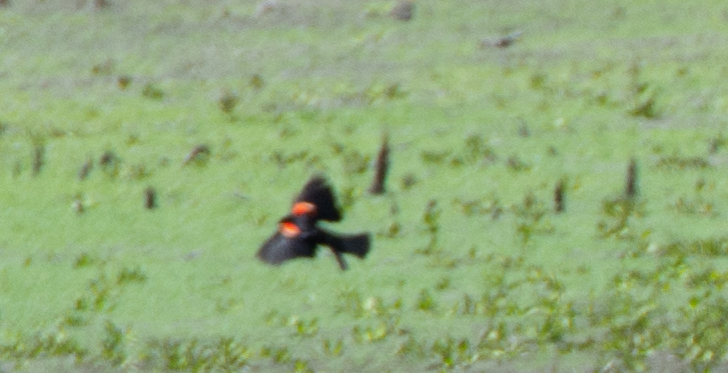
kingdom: Animalia
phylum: Chordata
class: Aves
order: Passeriformes
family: Icteridae
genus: Agelaius
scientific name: Agelaius phoeniceus
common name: Red-winged blackbird
